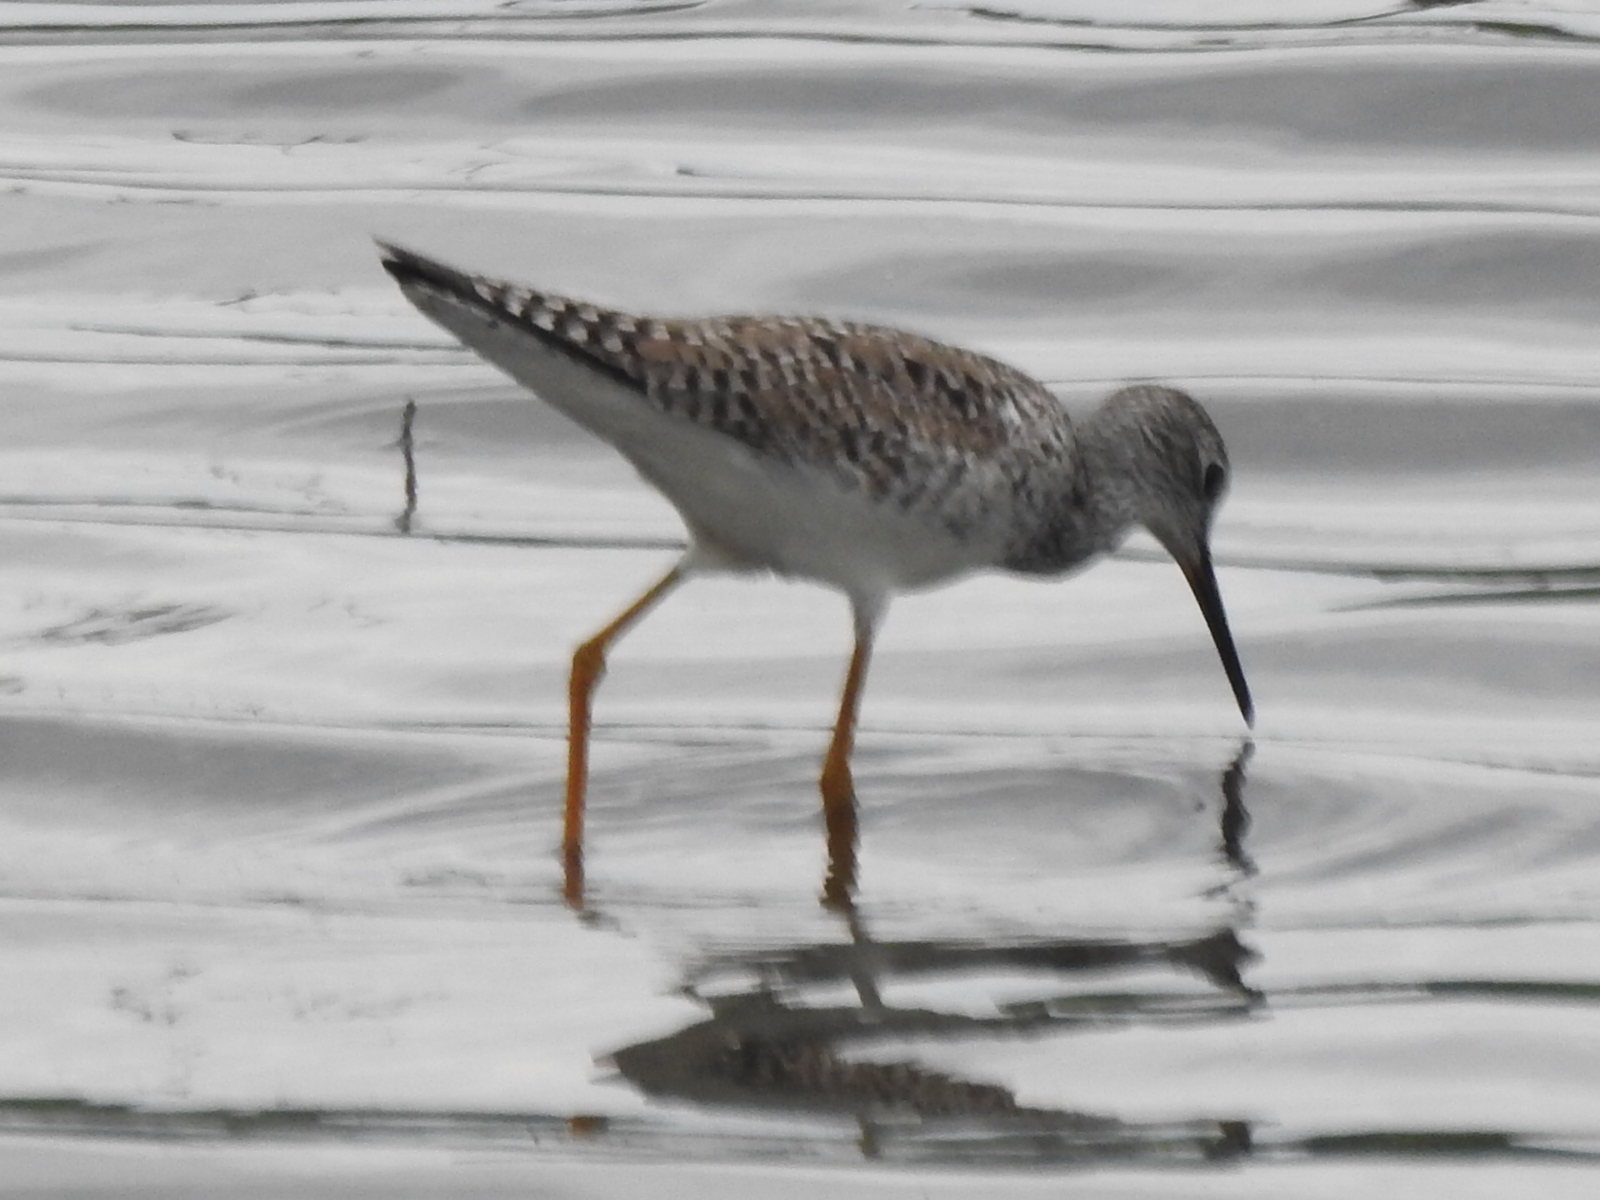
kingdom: Animalia
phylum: Chordata
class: Aves
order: Charadriiformes
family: Scolopacidae
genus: Tringa
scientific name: Tringa flavipes
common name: Lesser yellowlegs
